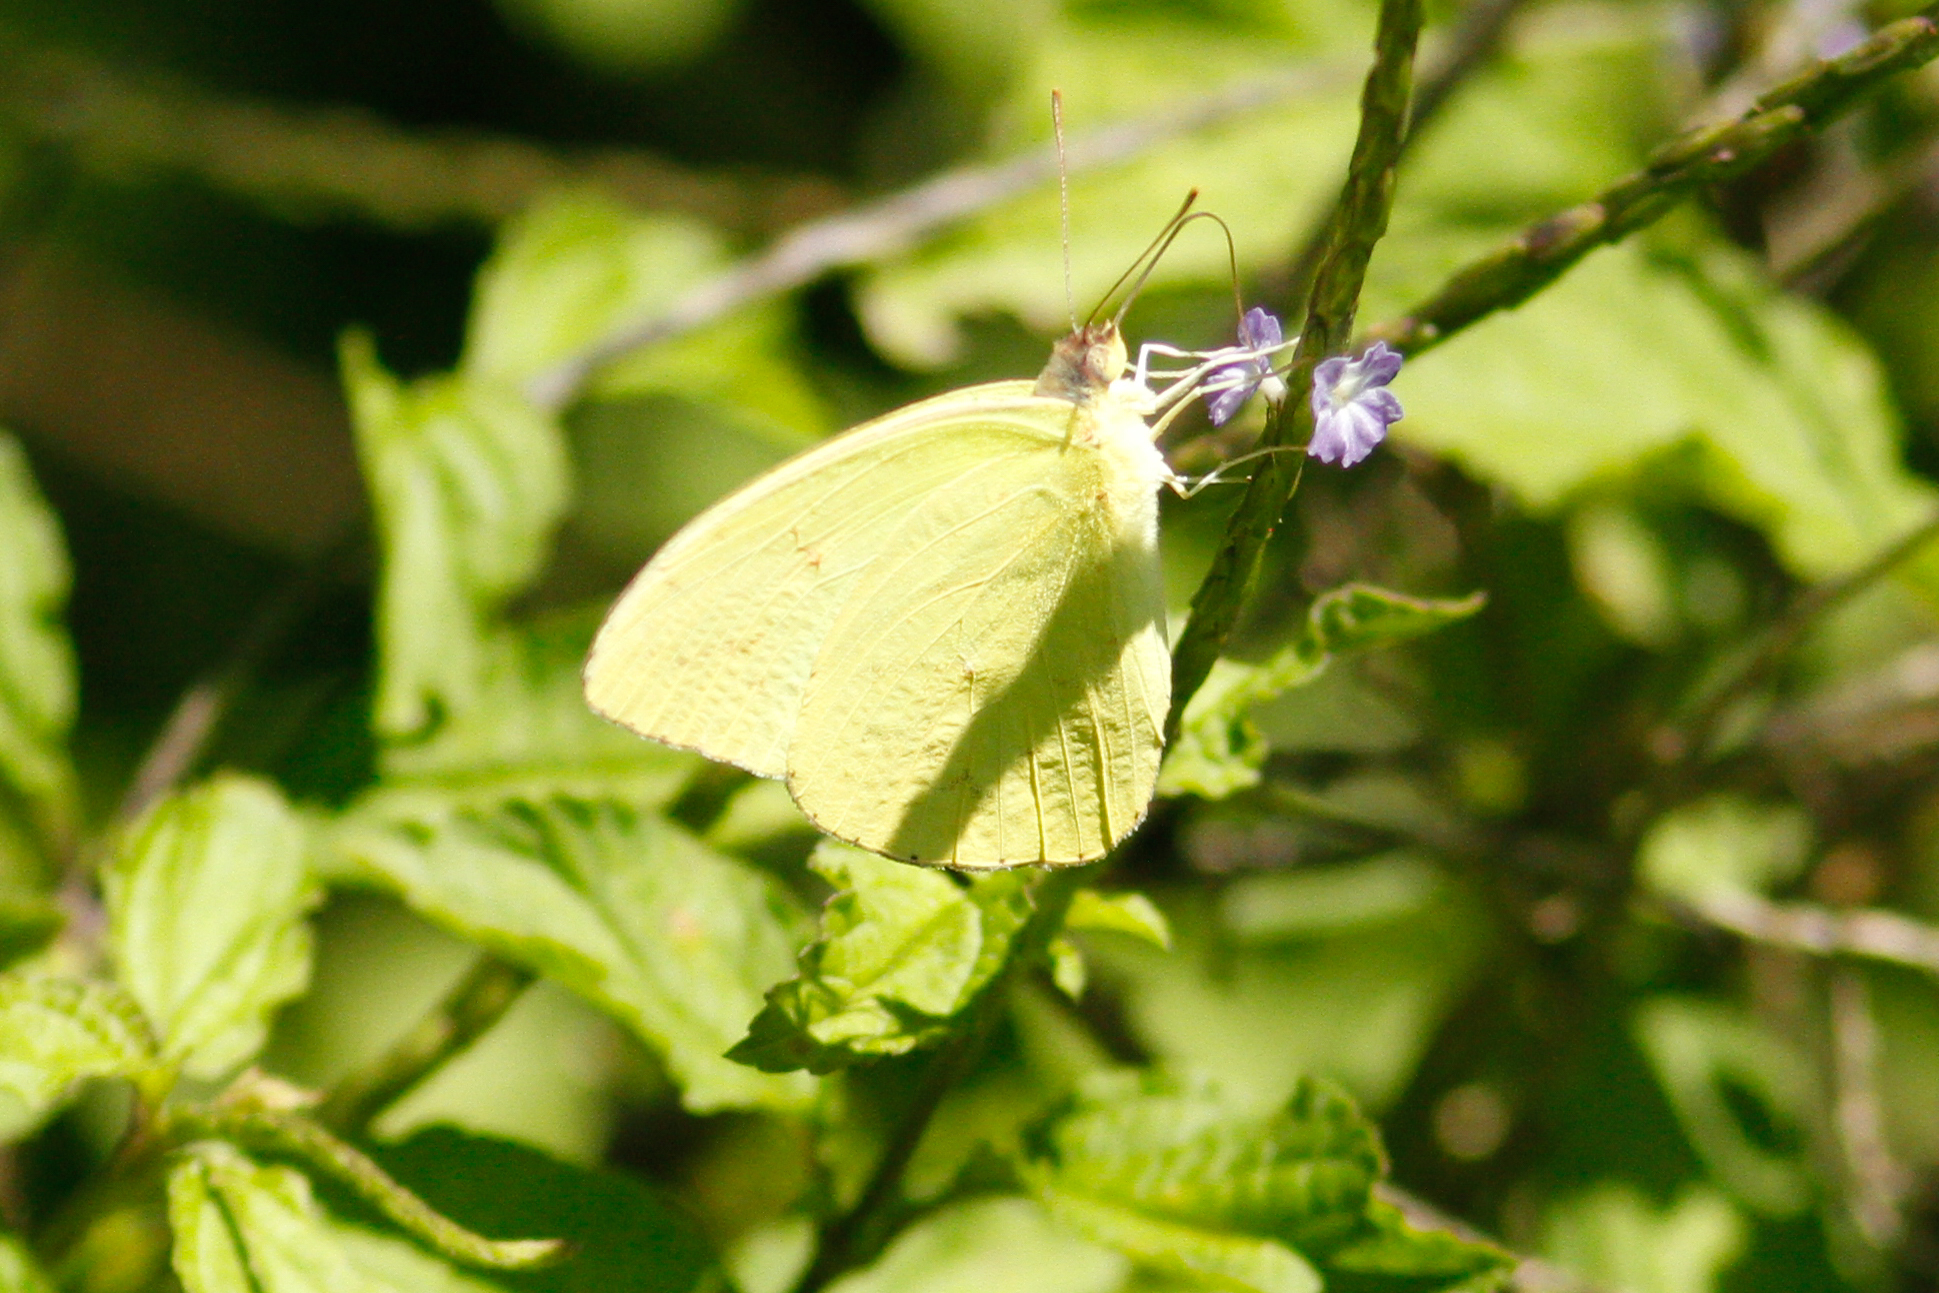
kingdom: Animalia
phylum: Arthropoda
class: Insecta
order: Lepidoptera
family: Pieridae
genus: Phoebis
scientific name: Phoebis sennae
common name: Cloudless sulphur
